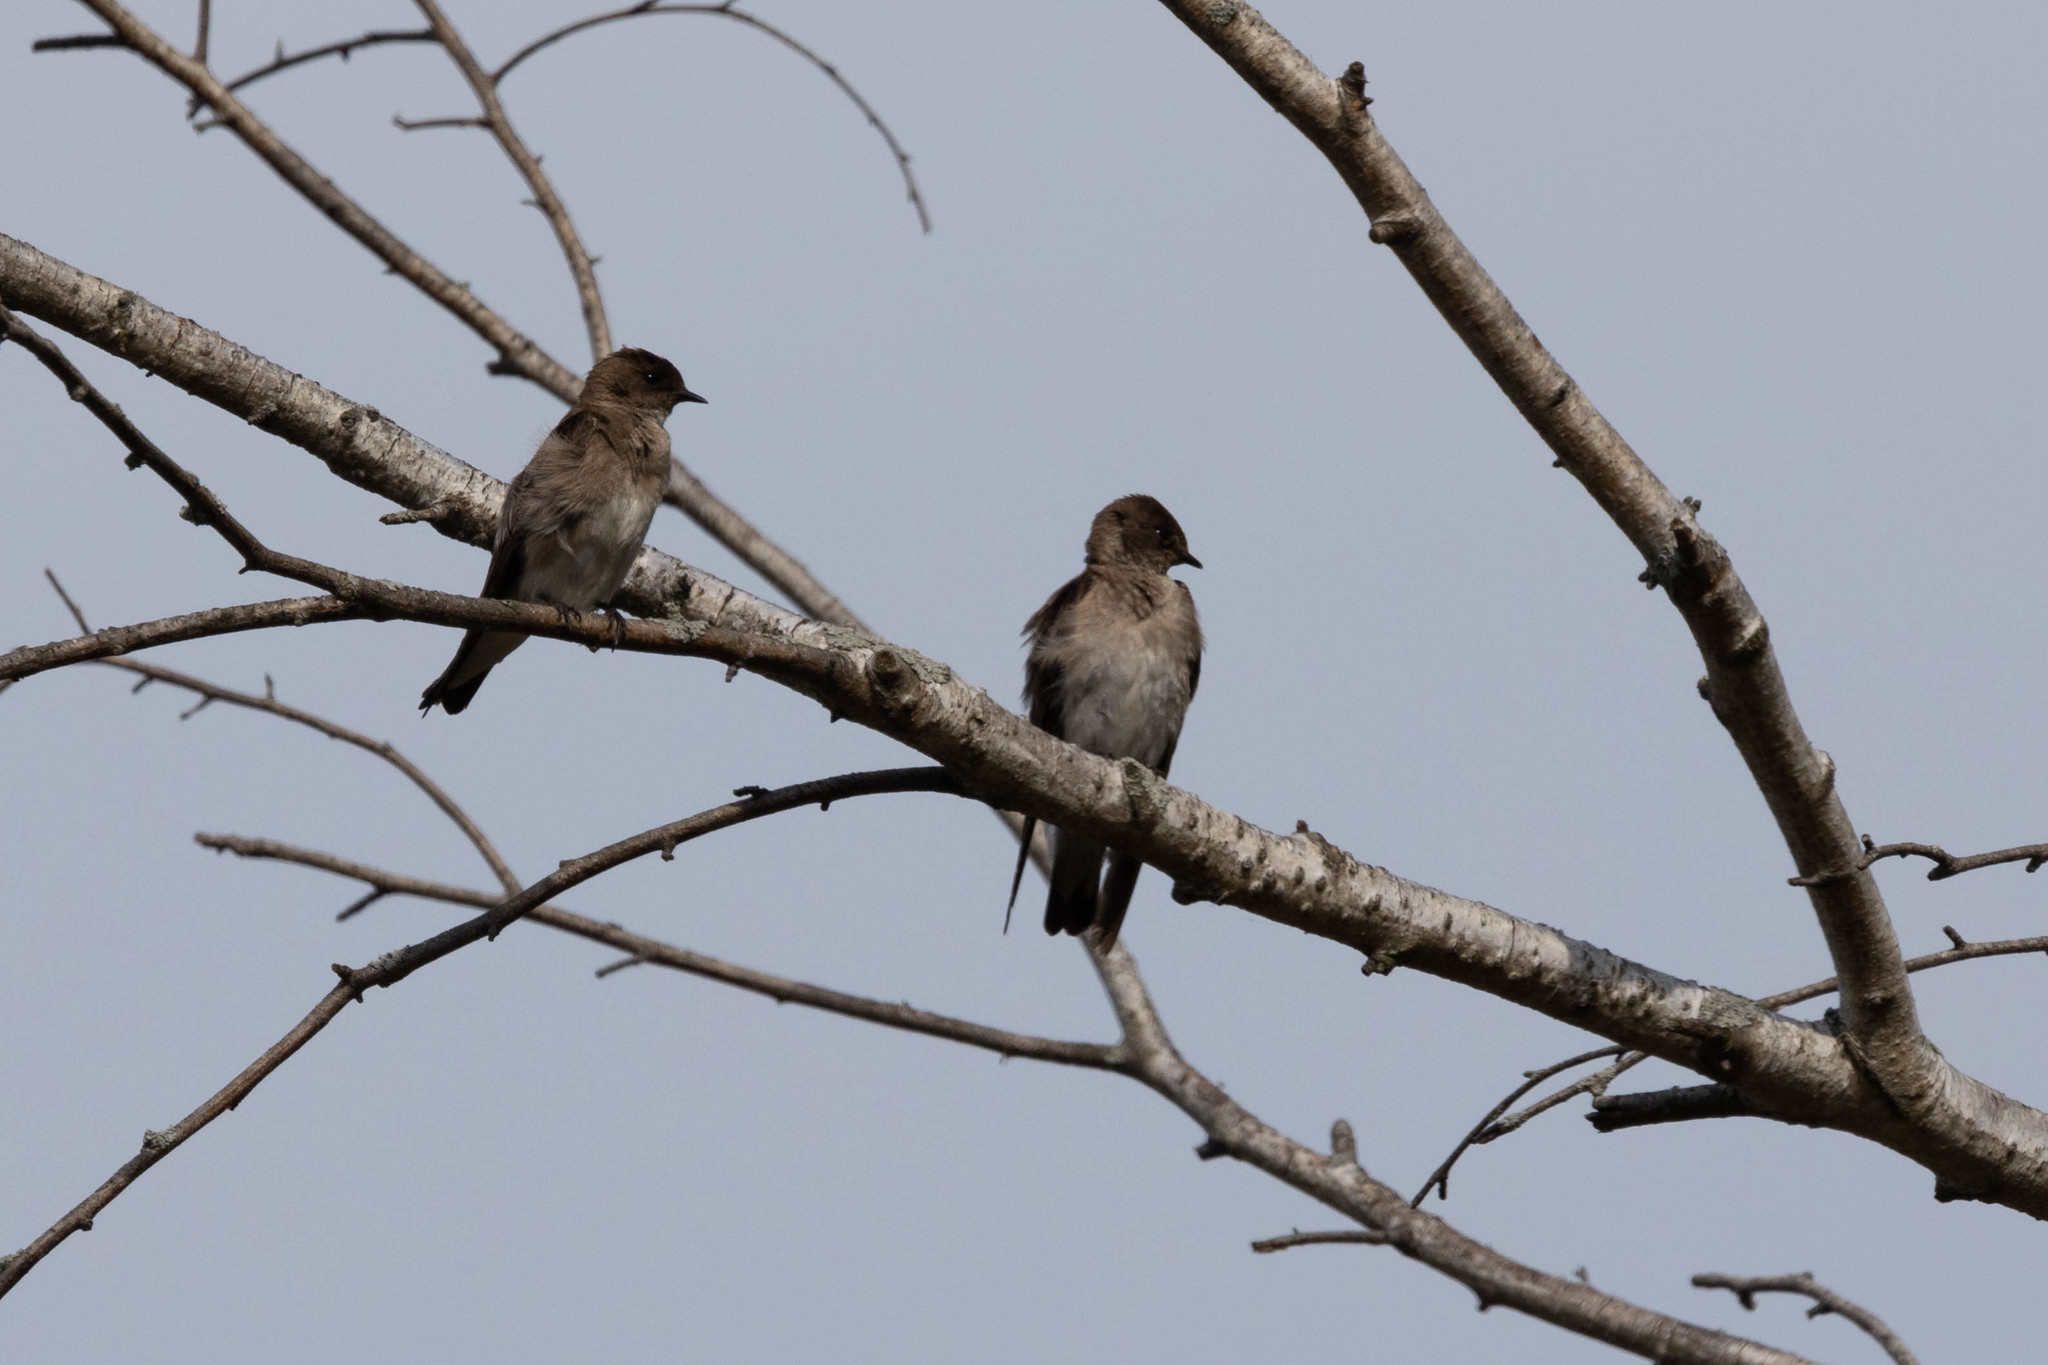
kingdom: Animalia
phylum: Chordata
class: Aves
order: Passeriformes
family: Hirundinidae
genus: Stelgidopteryx
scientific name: Stelgidopteryx serripennis
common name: Northern rough-winged swallow
